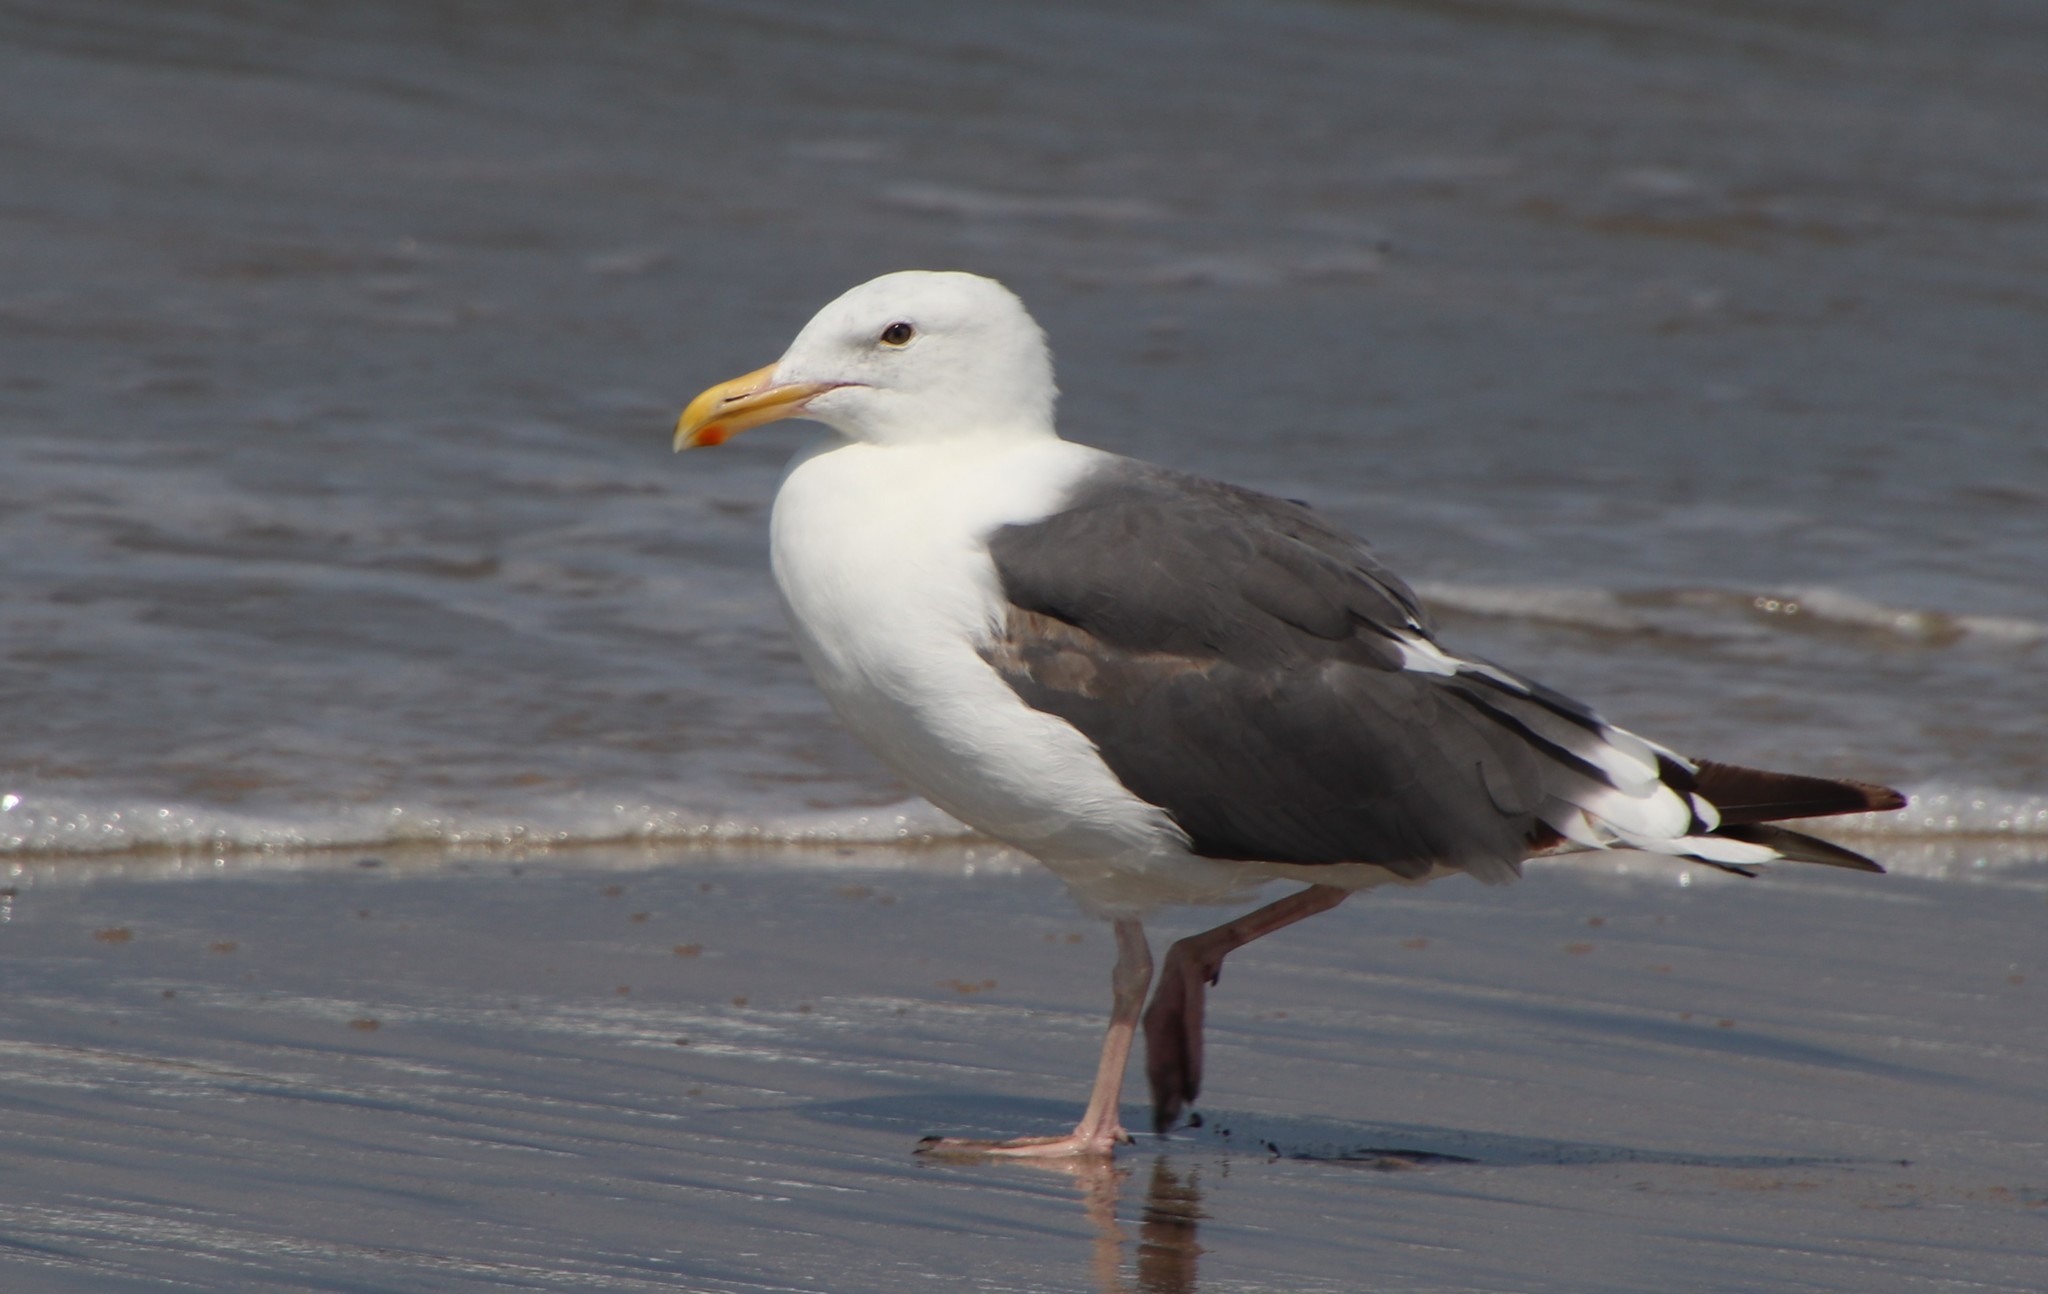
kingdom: Animalia
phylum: Chordata
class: Aves
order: Charadriiformes
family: Laridae
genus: Larus
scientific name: Larus occidentalis
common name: Western gull
